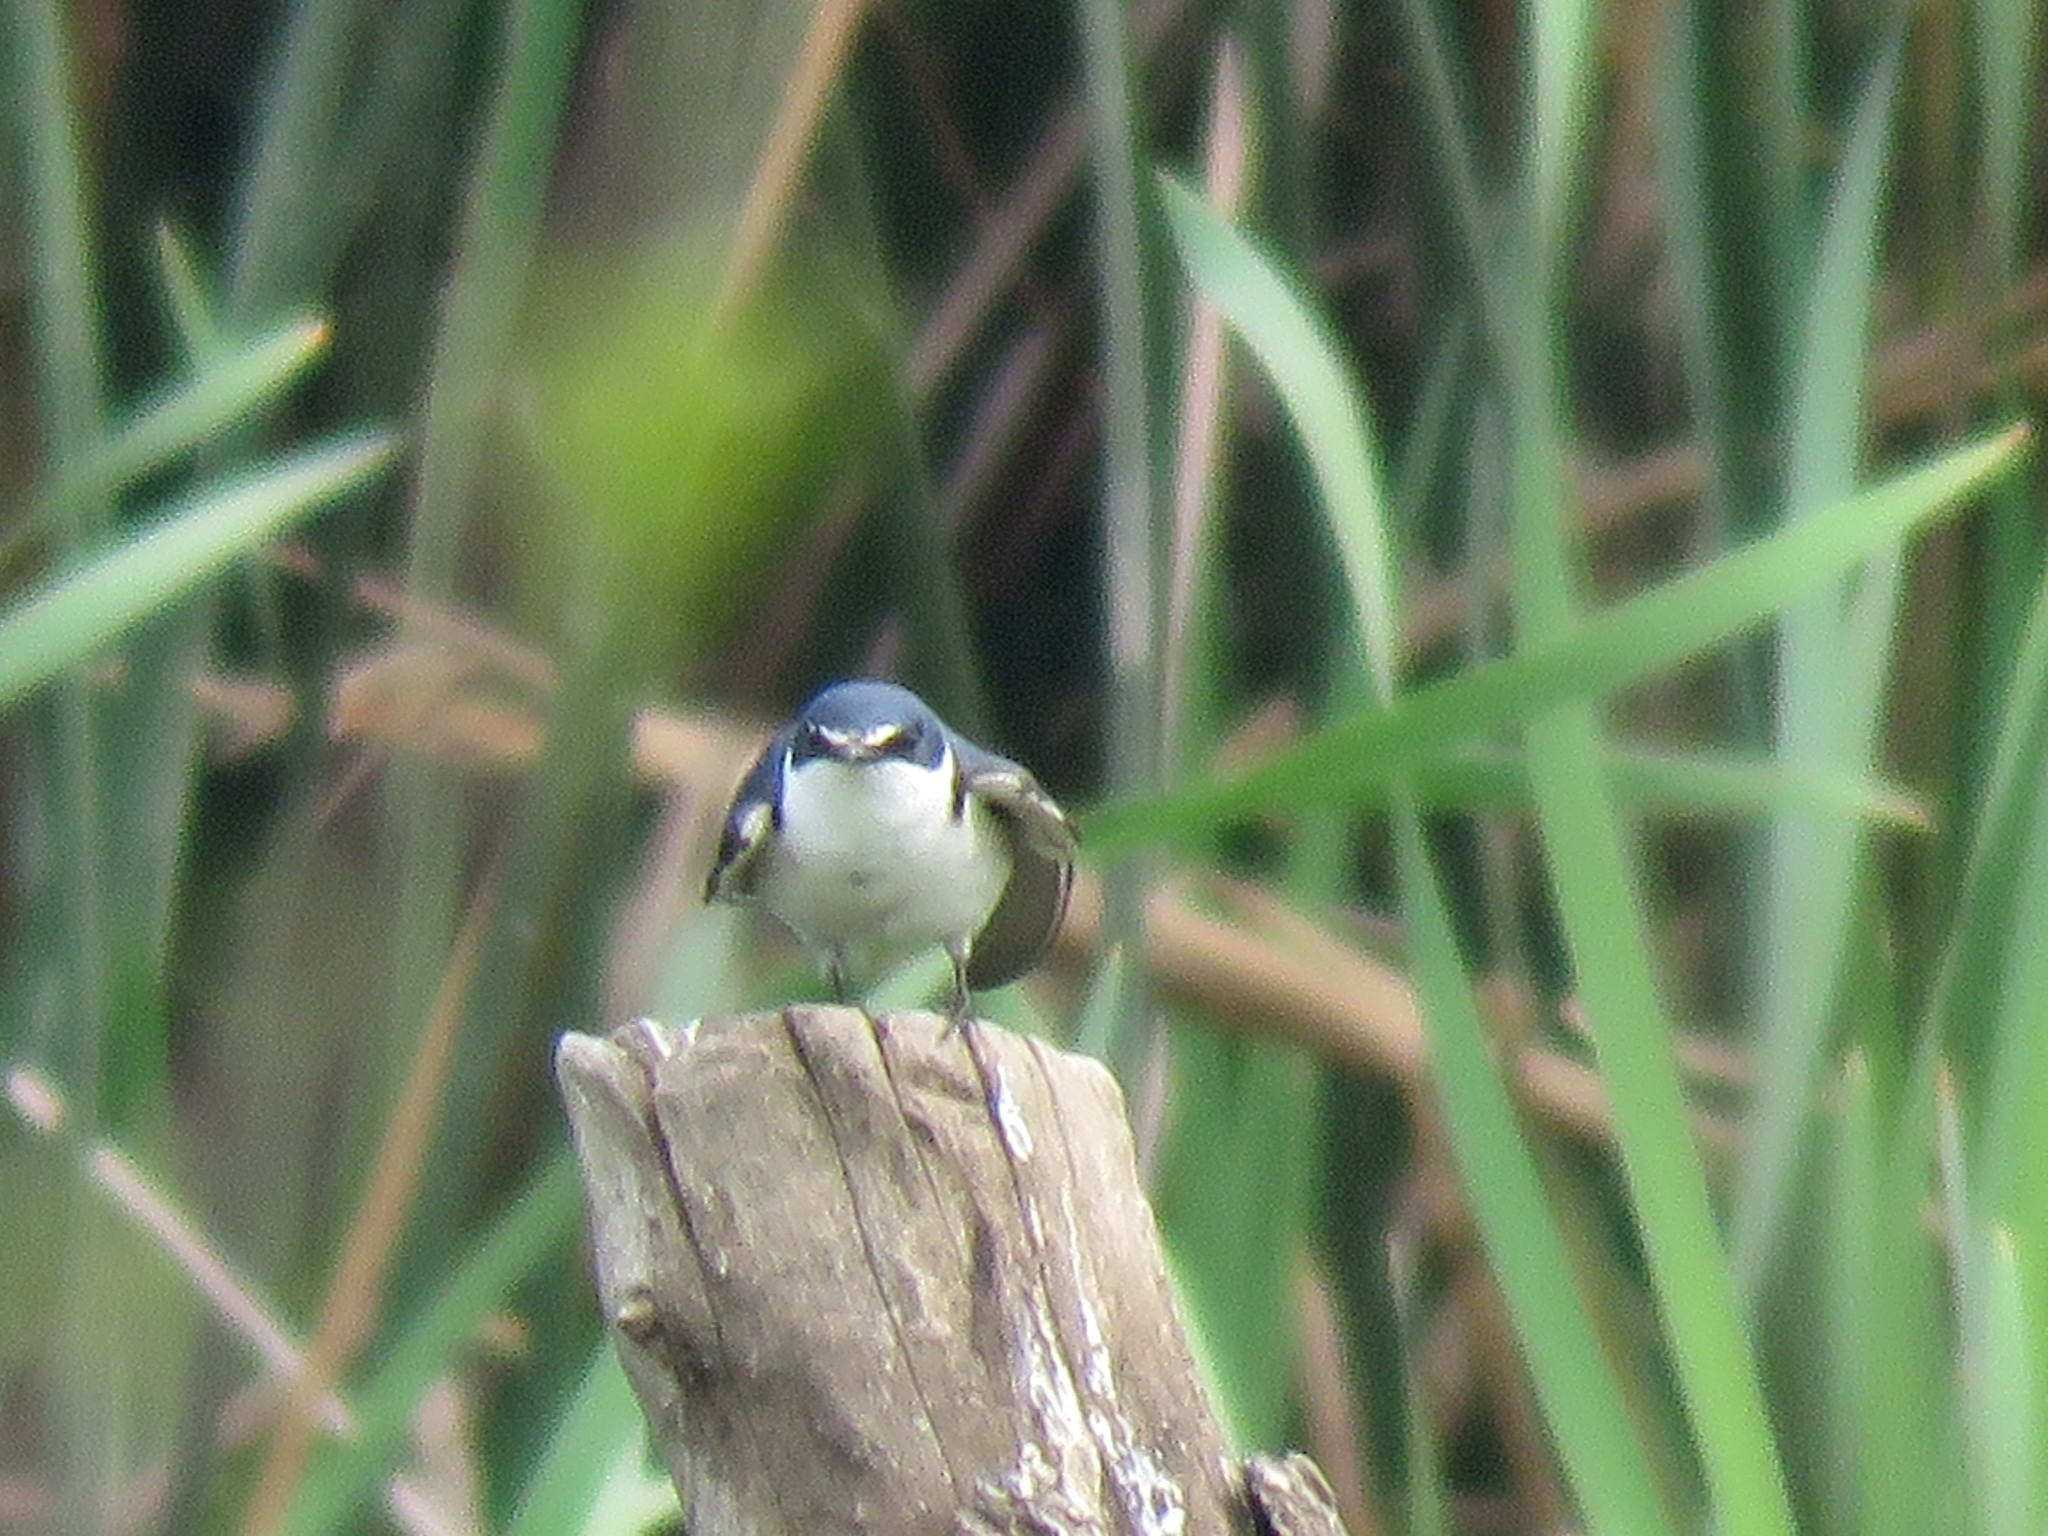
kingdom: Animalia
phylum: Chordata
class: Aves
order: Passeriformes
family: Hirundinidae
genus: Tachycineta
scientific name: Tachycineta leucorrhoa
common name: White-rumped swallow
